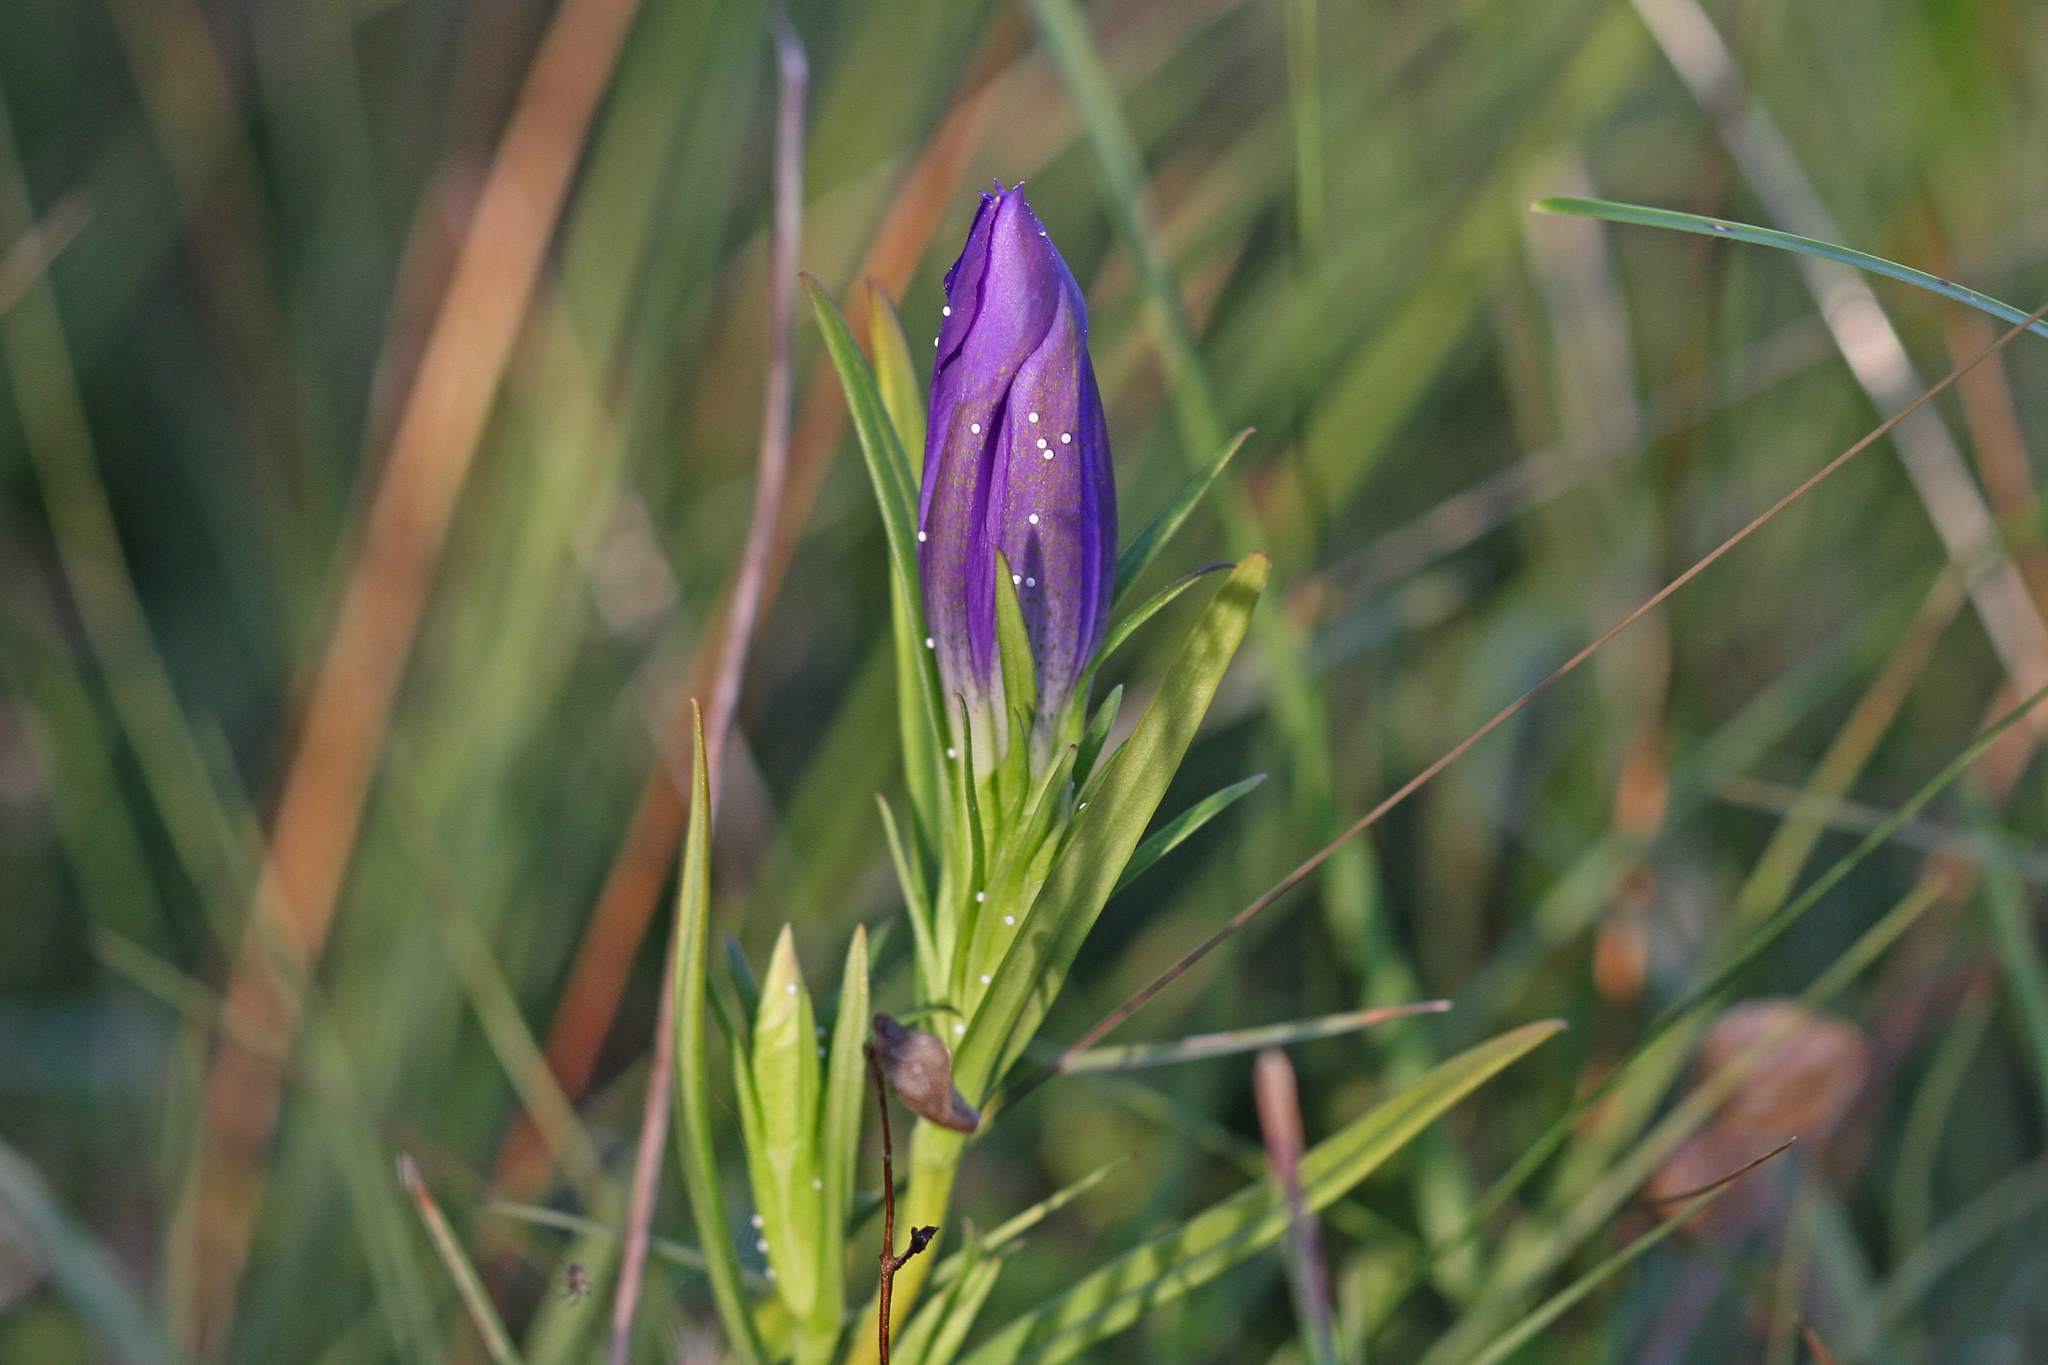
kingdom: Animalia
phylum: Arthropoda
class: Insecta
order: Lepidoptera
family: Lycaenidae
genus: Maculinea
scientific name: Maculinea alcon
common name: Alcon blue
